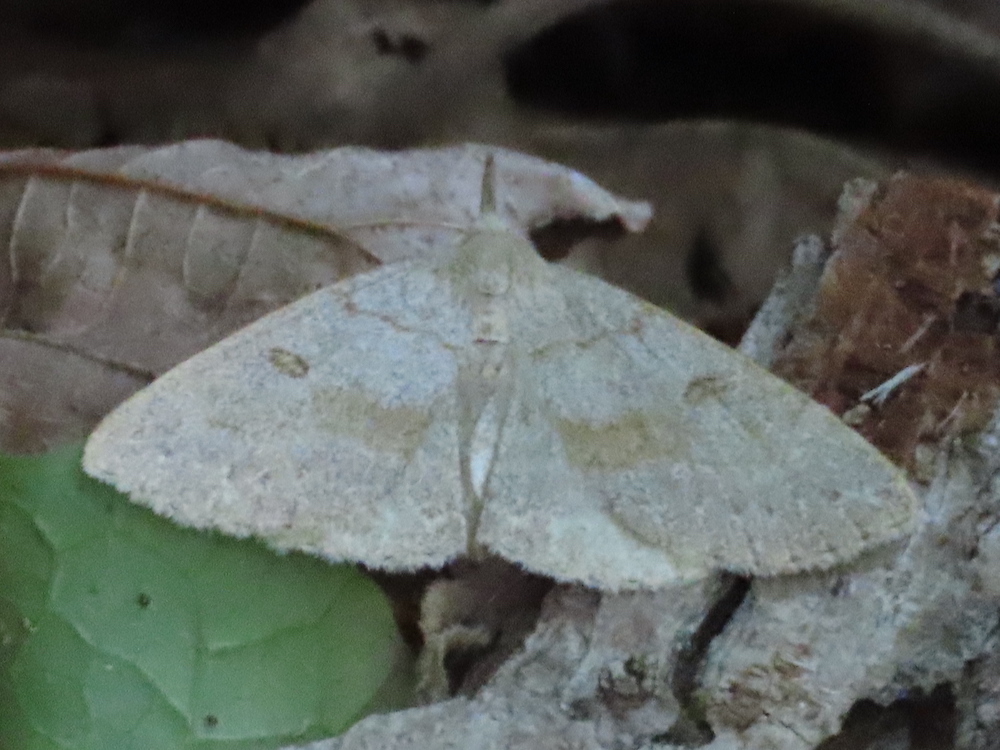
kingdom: Animalia
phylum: Arthropoda
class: Insecta
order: Lepidoptera
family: Erebidae
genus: Macrochilo
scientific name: Macrochilo morbidalis
